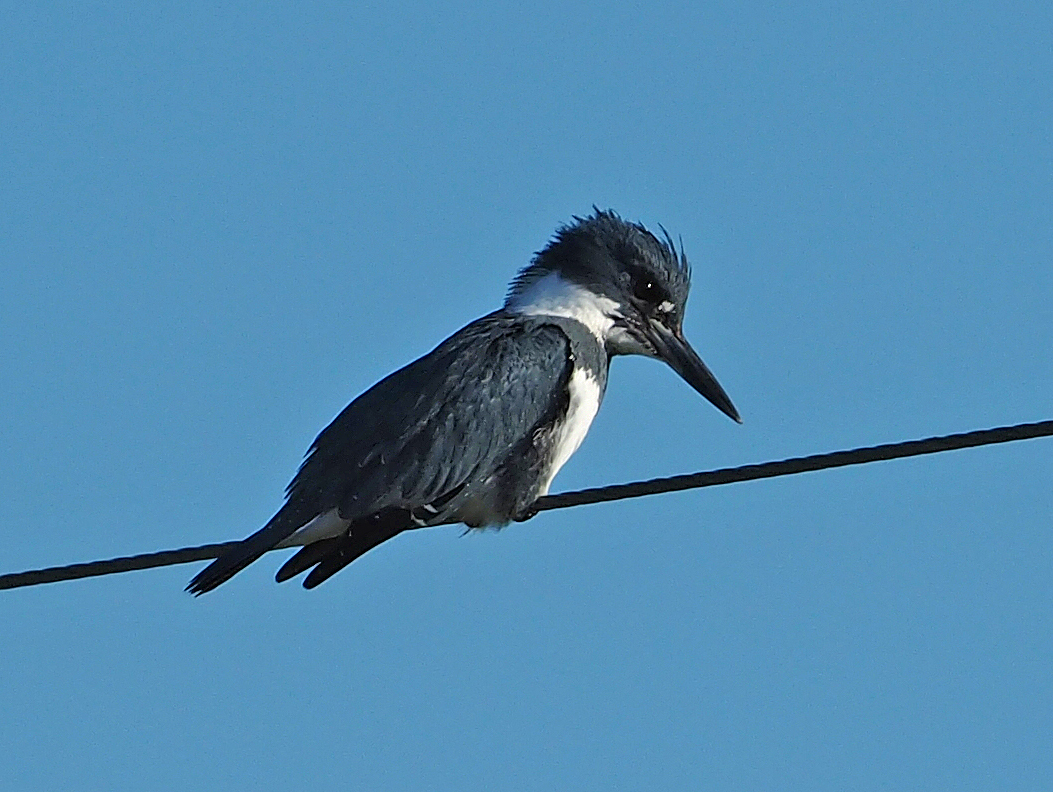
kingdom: Animalia
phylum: Chordata
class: Aves
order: Coraciiformes
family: Alcedinidae
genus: Megaceryle
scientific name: Megaceryle alcyon
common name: Belted kingfisher
